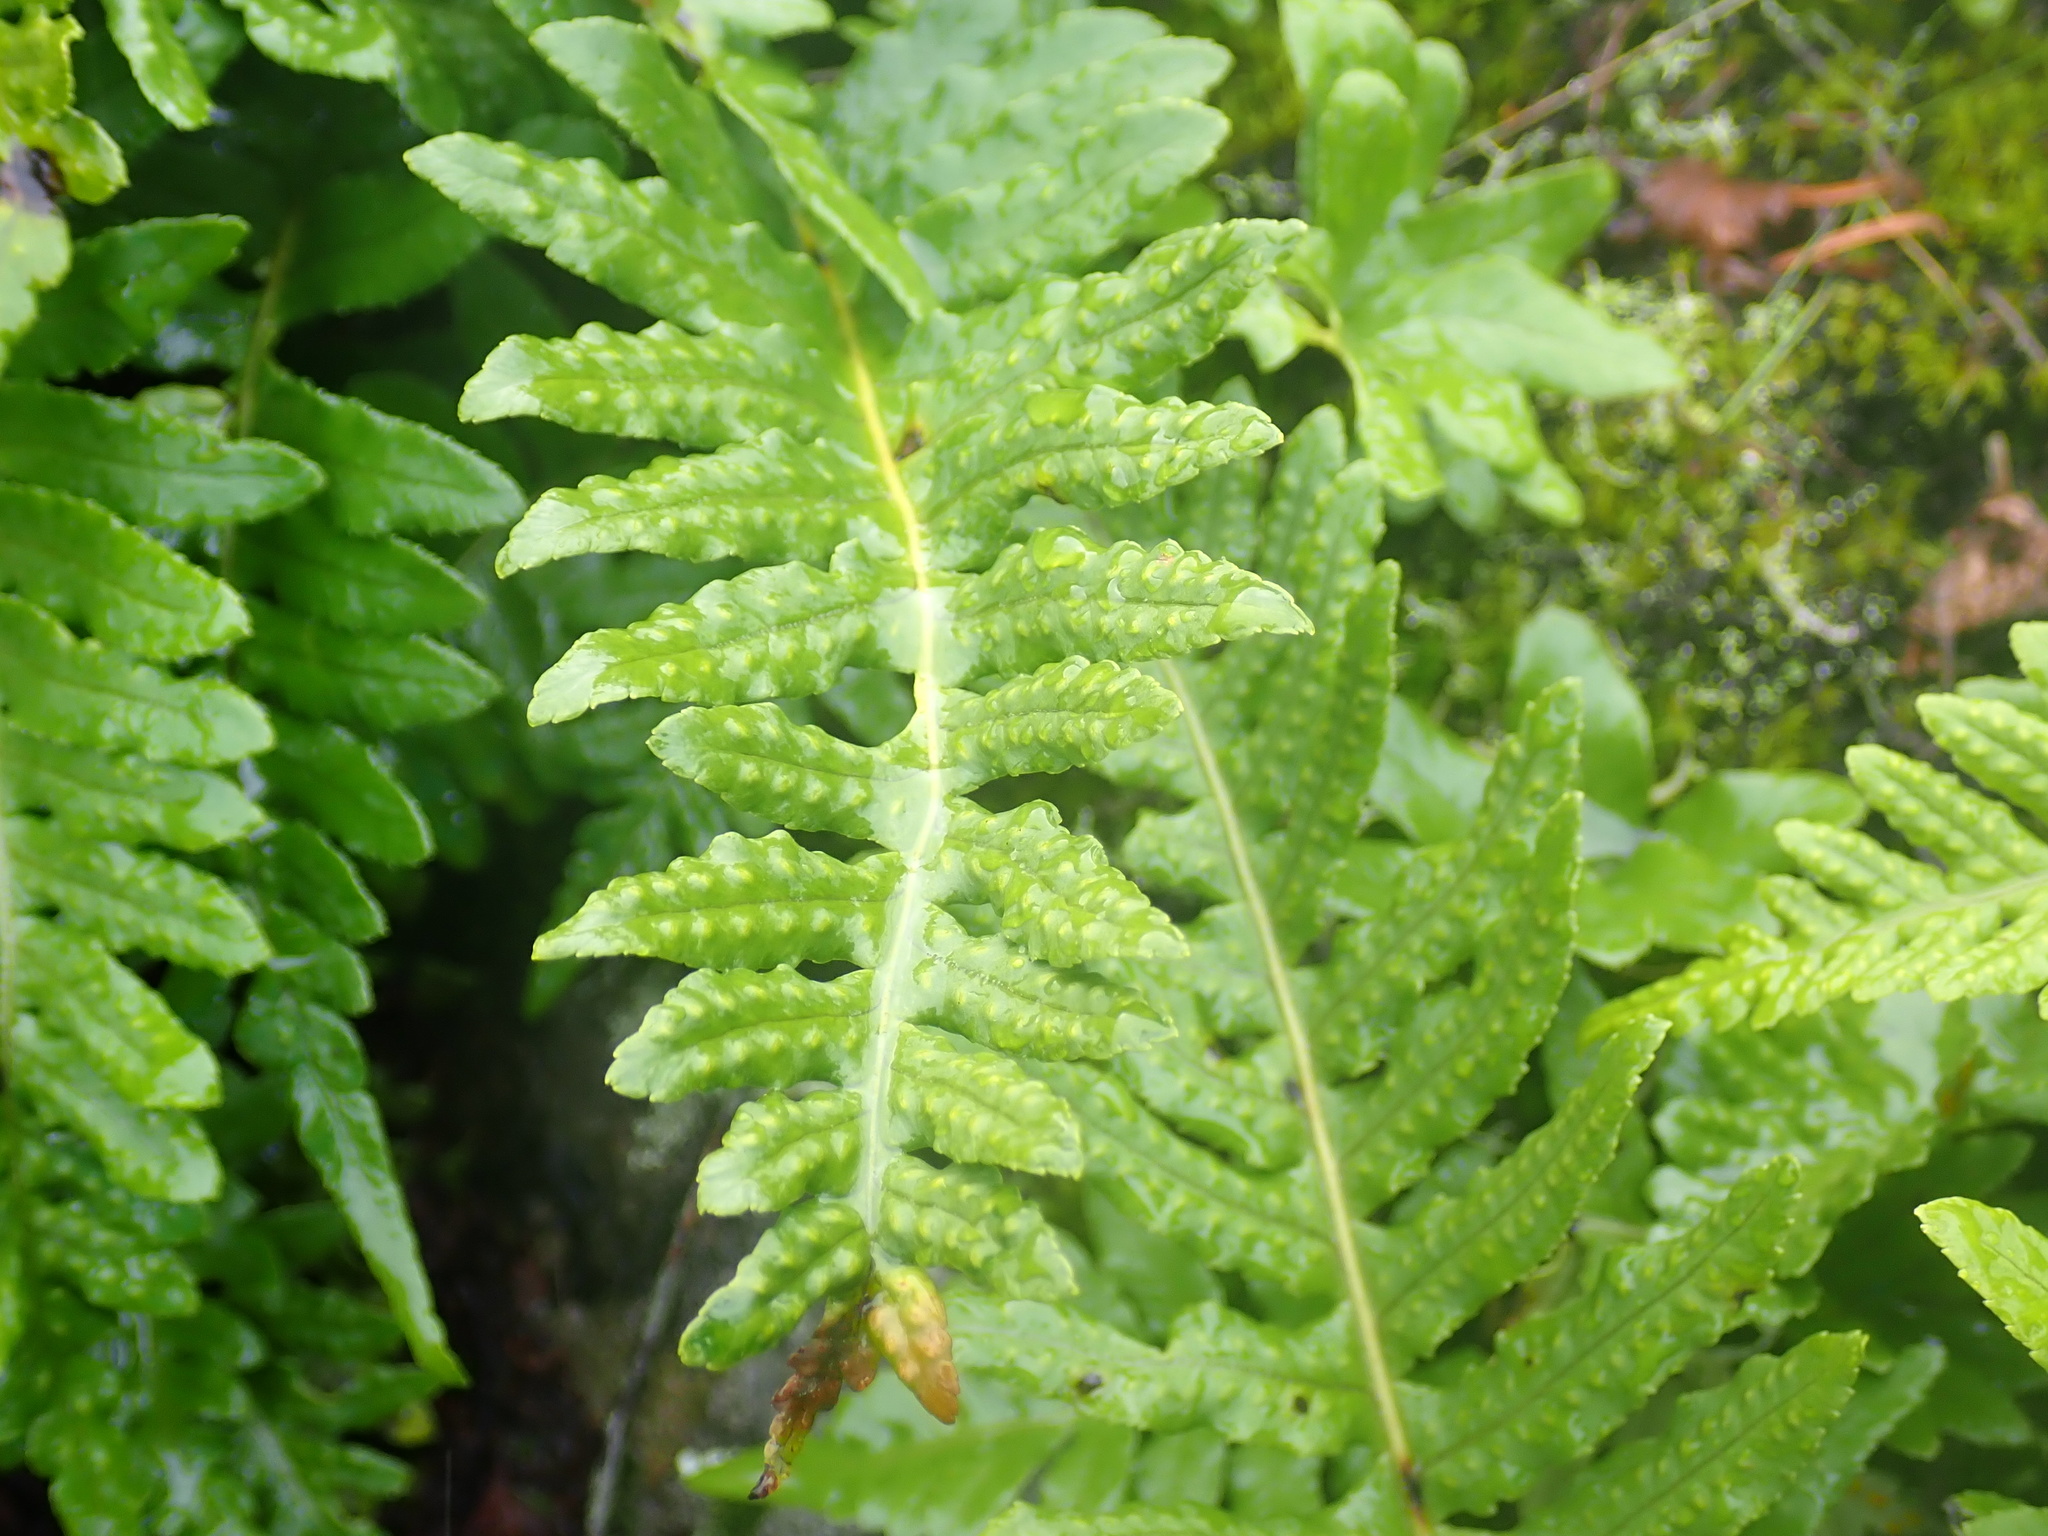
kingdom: Plantae
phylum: Tracheophyta
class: Polypodiopsida
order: Polypodiales
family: Polypodiaceae
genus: Polypodium
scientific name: Polypodium glycyrrhiza
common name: Licorice fern
